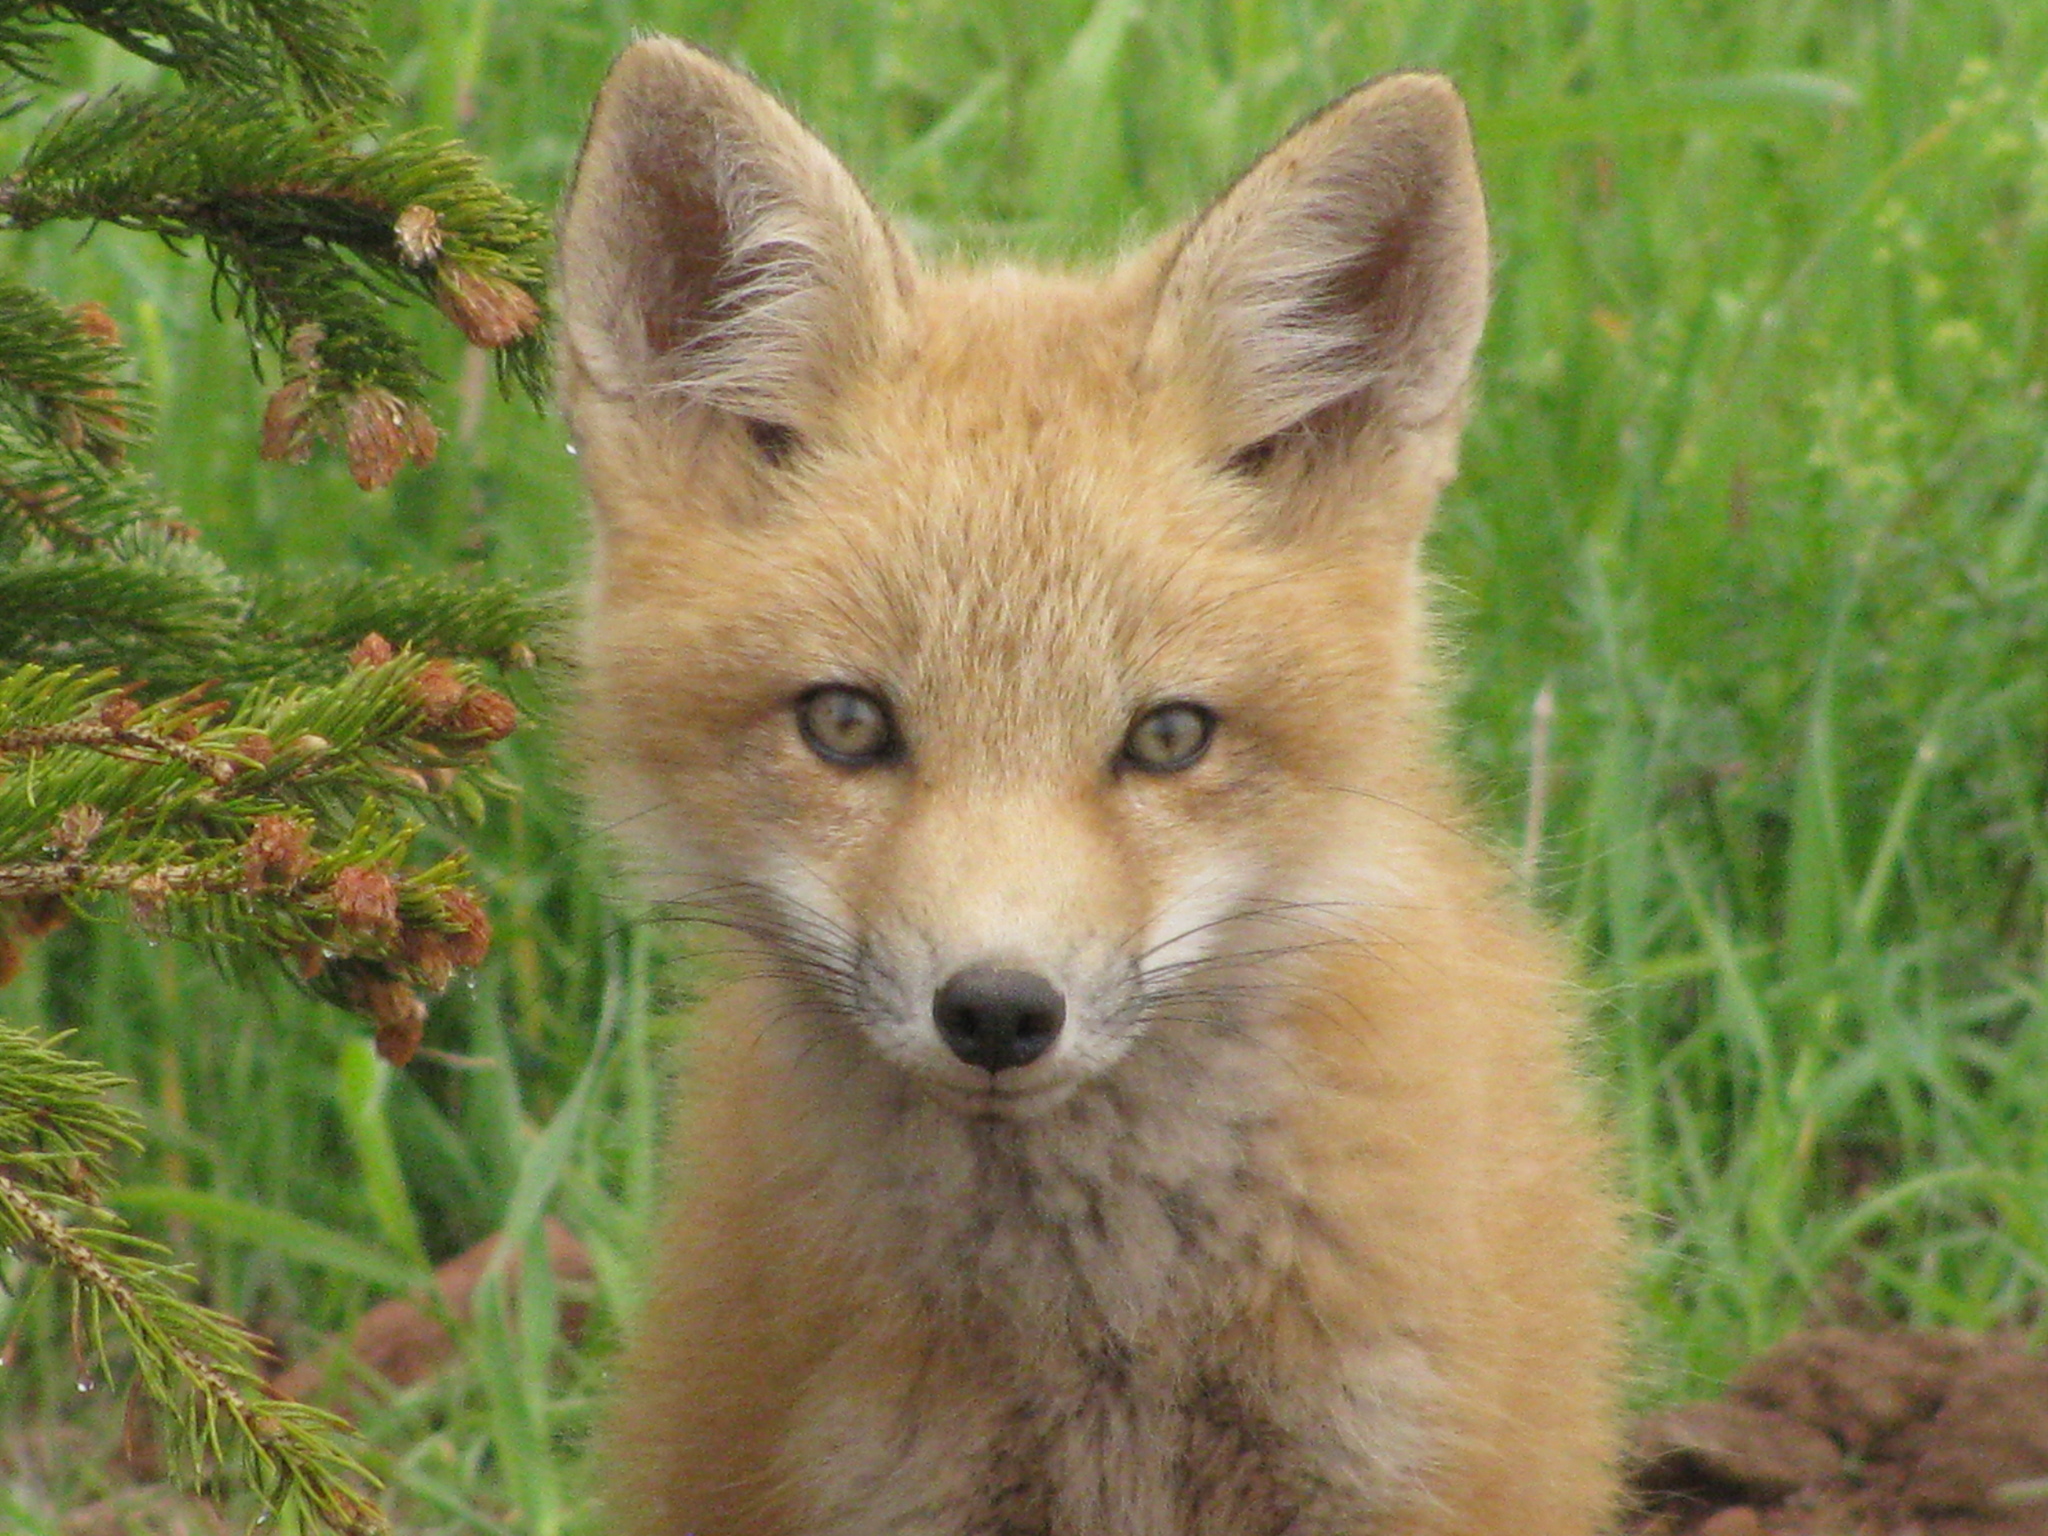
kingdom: Animalia
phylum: Chordata
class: Mammalia
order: Carnivora
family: Canidae
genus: Vulpes
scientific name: Vulpes vulpes
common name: Red fox
